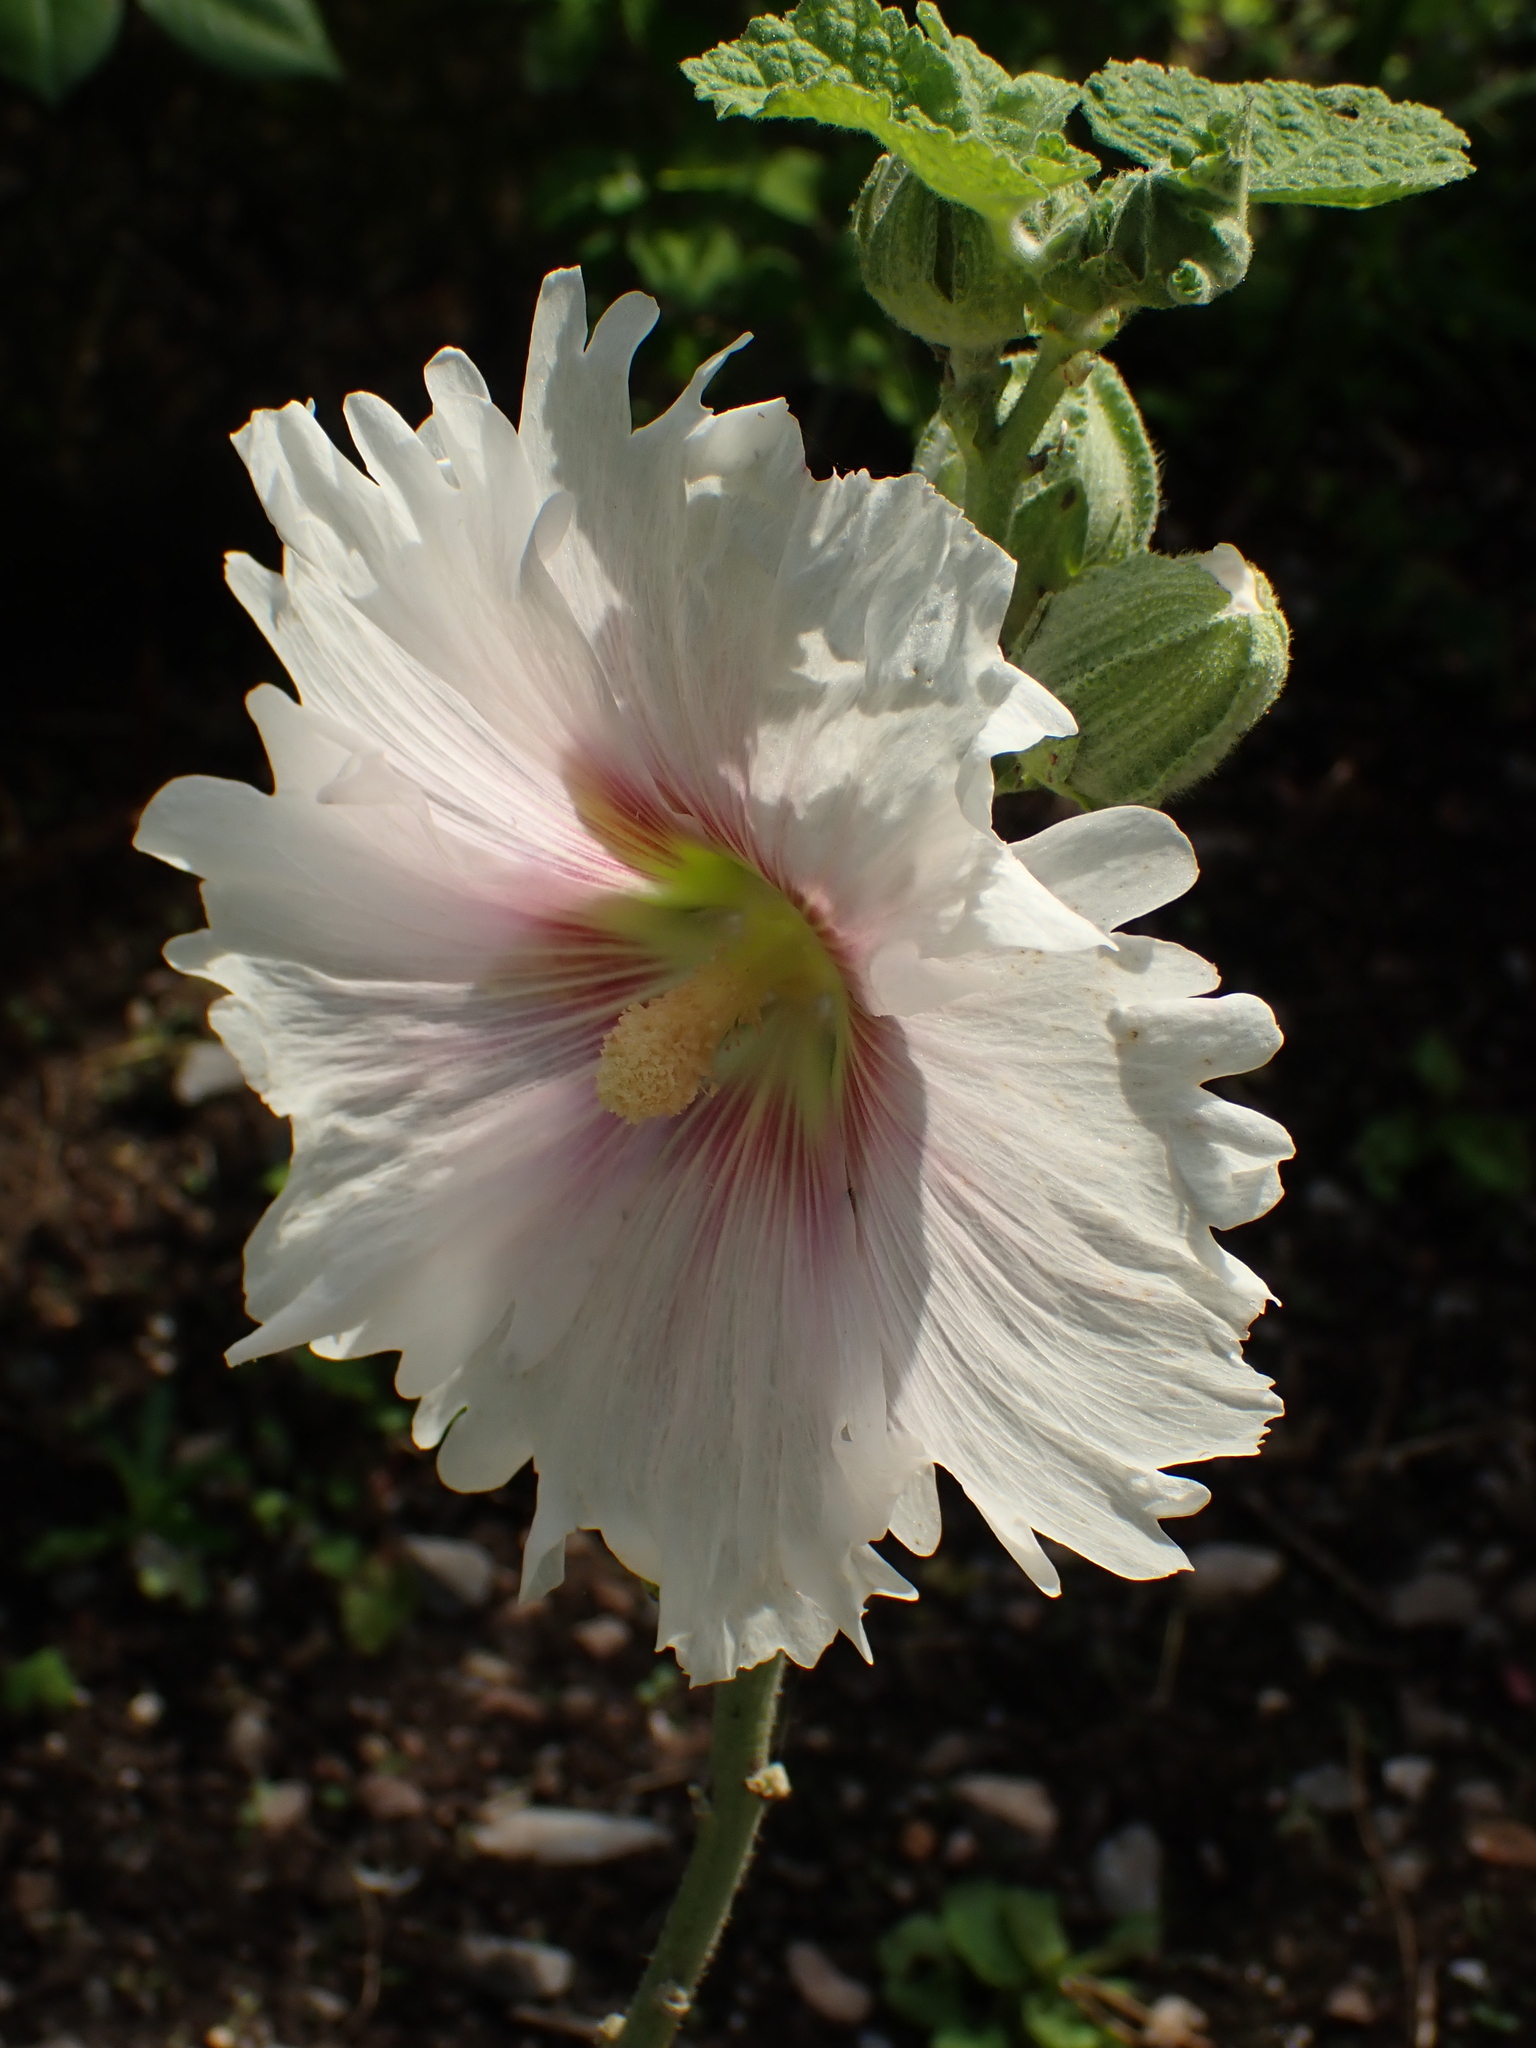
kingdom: Plantae
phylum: Tracheophyta
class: Magnoliopsida
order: Malvales
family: Malvaceae
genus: Alcea
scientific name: Alcea rosea
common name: Hollyhock
